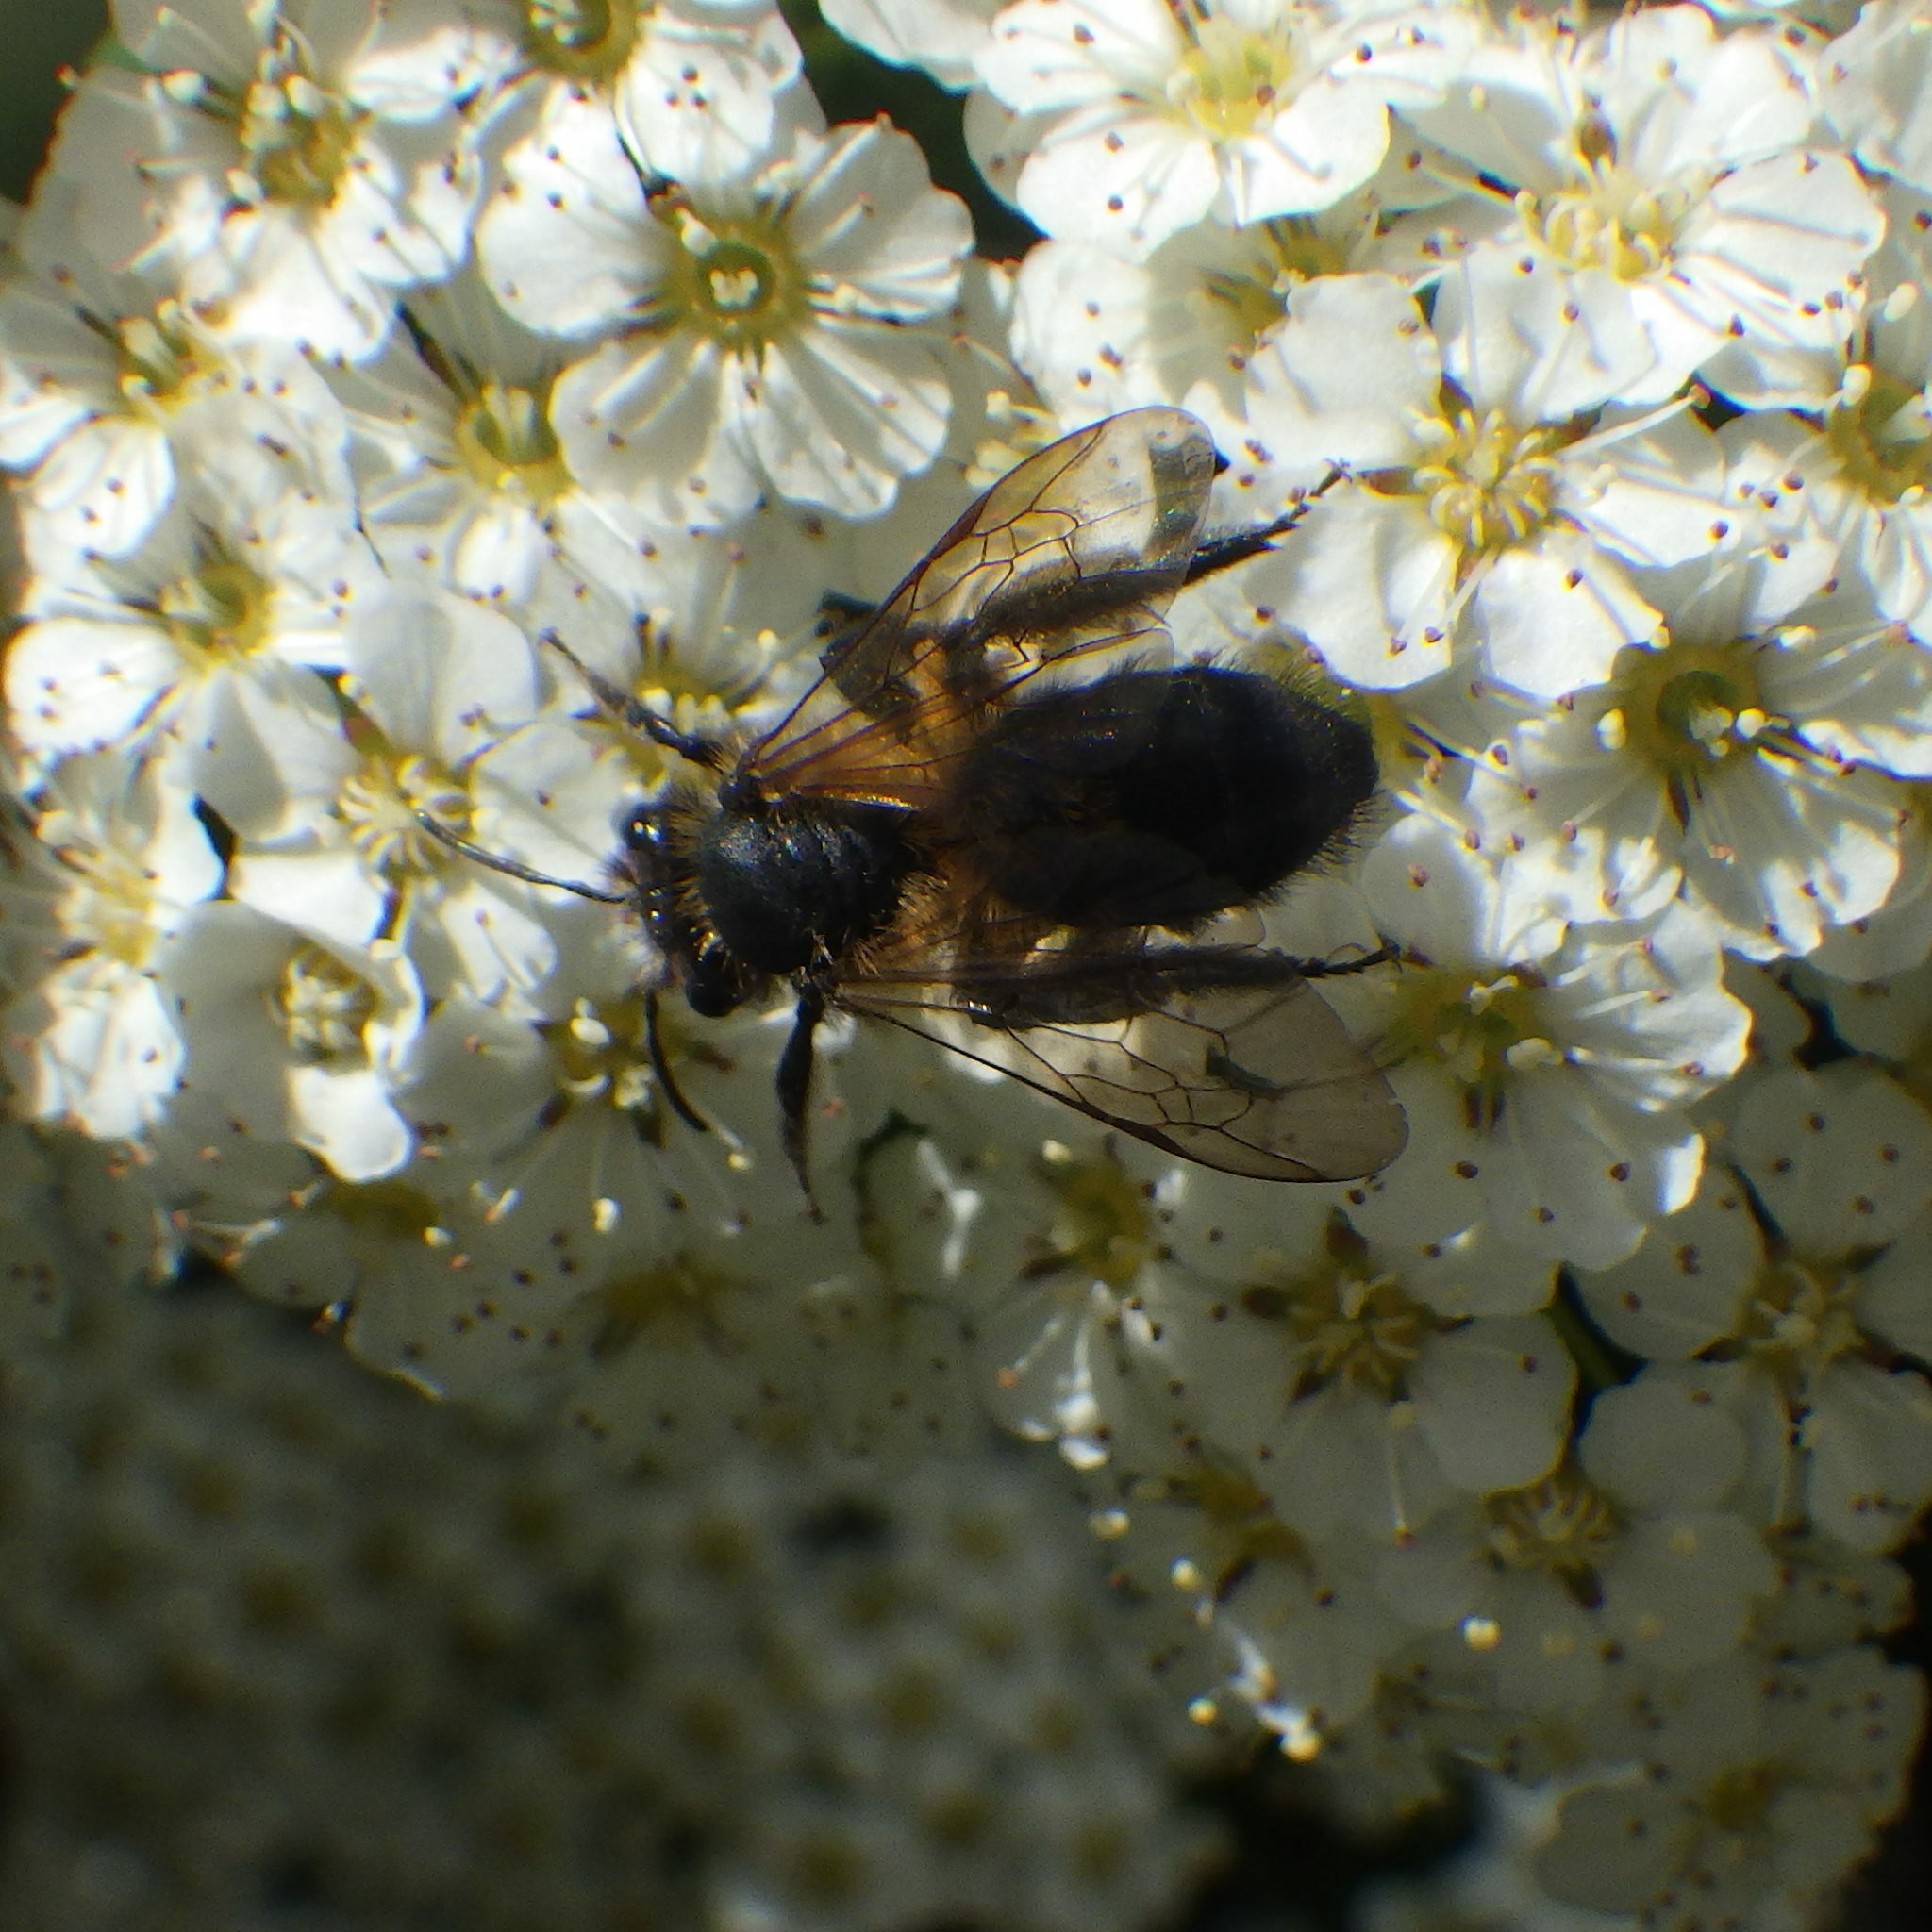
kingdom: Animalia
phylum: Arthropoda
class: Insecta
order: Hymenoptera
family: Andrenidae
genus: Andrena
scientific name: Andrena milwaukeensis
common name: Milwaukee mining bee
